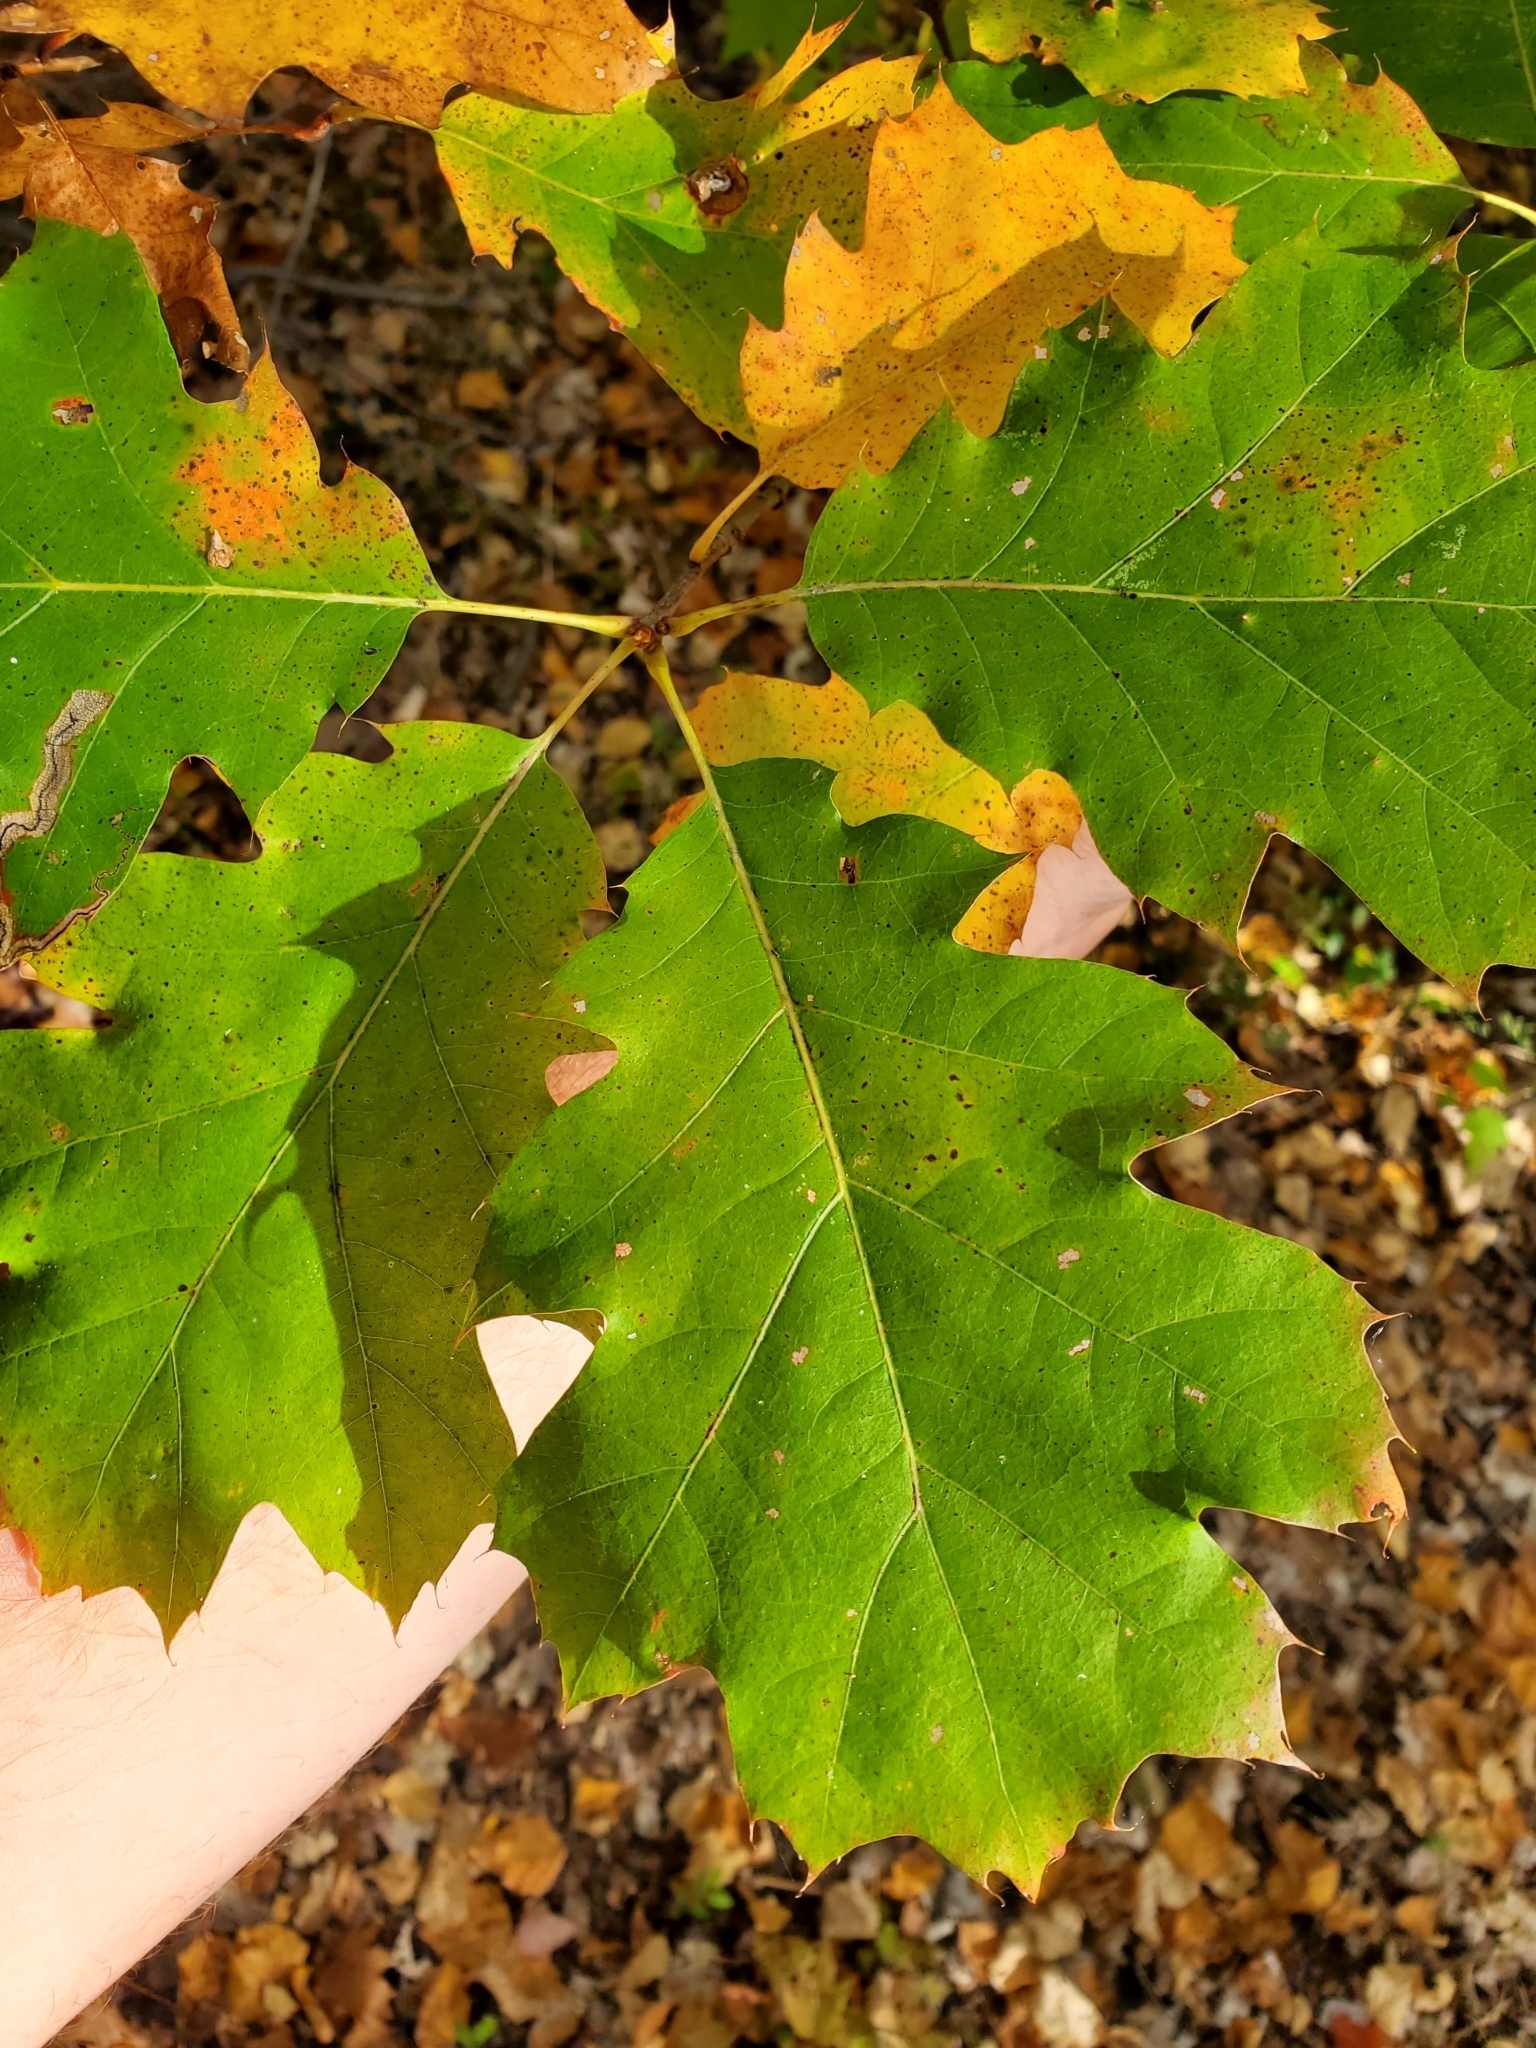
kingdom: Plantae
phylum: Tracheophyta
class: Magnoliopsida
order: Fagales
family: Fagaceae
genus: Quercus
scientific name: Quercus rubra
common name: Red oak
